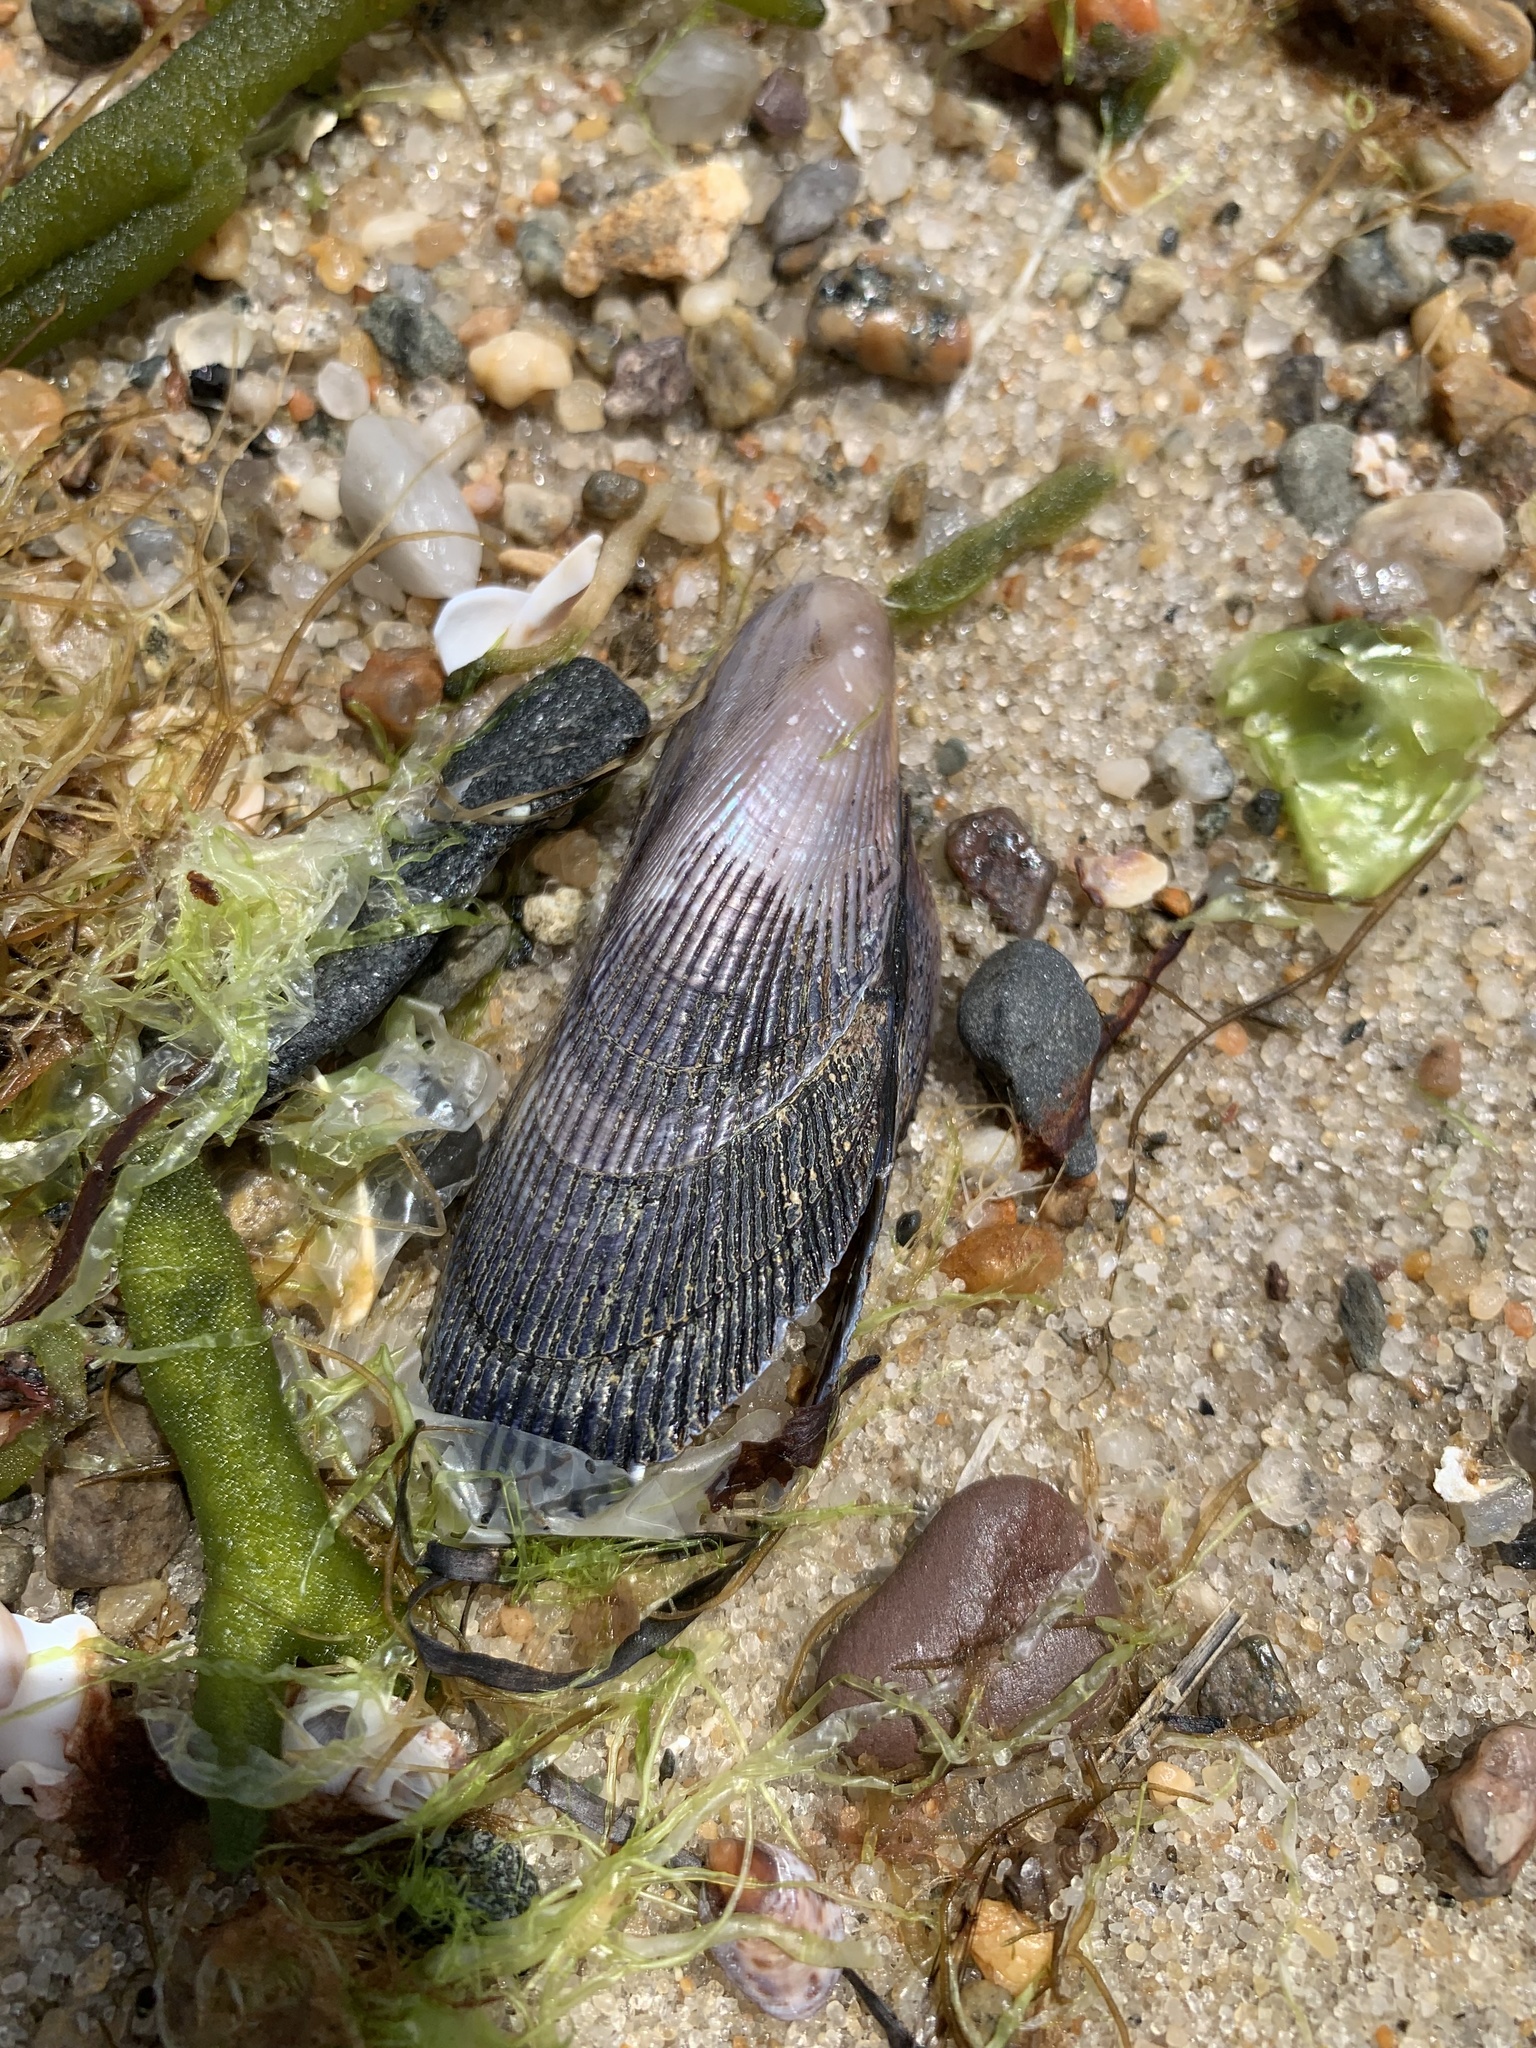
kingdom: Animalia
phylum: Mollusca
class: Bivalvia
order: Mytilida
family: Mytilidae
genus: Geukensia
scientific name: Geukensia demissa
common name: Ribbed mussel
